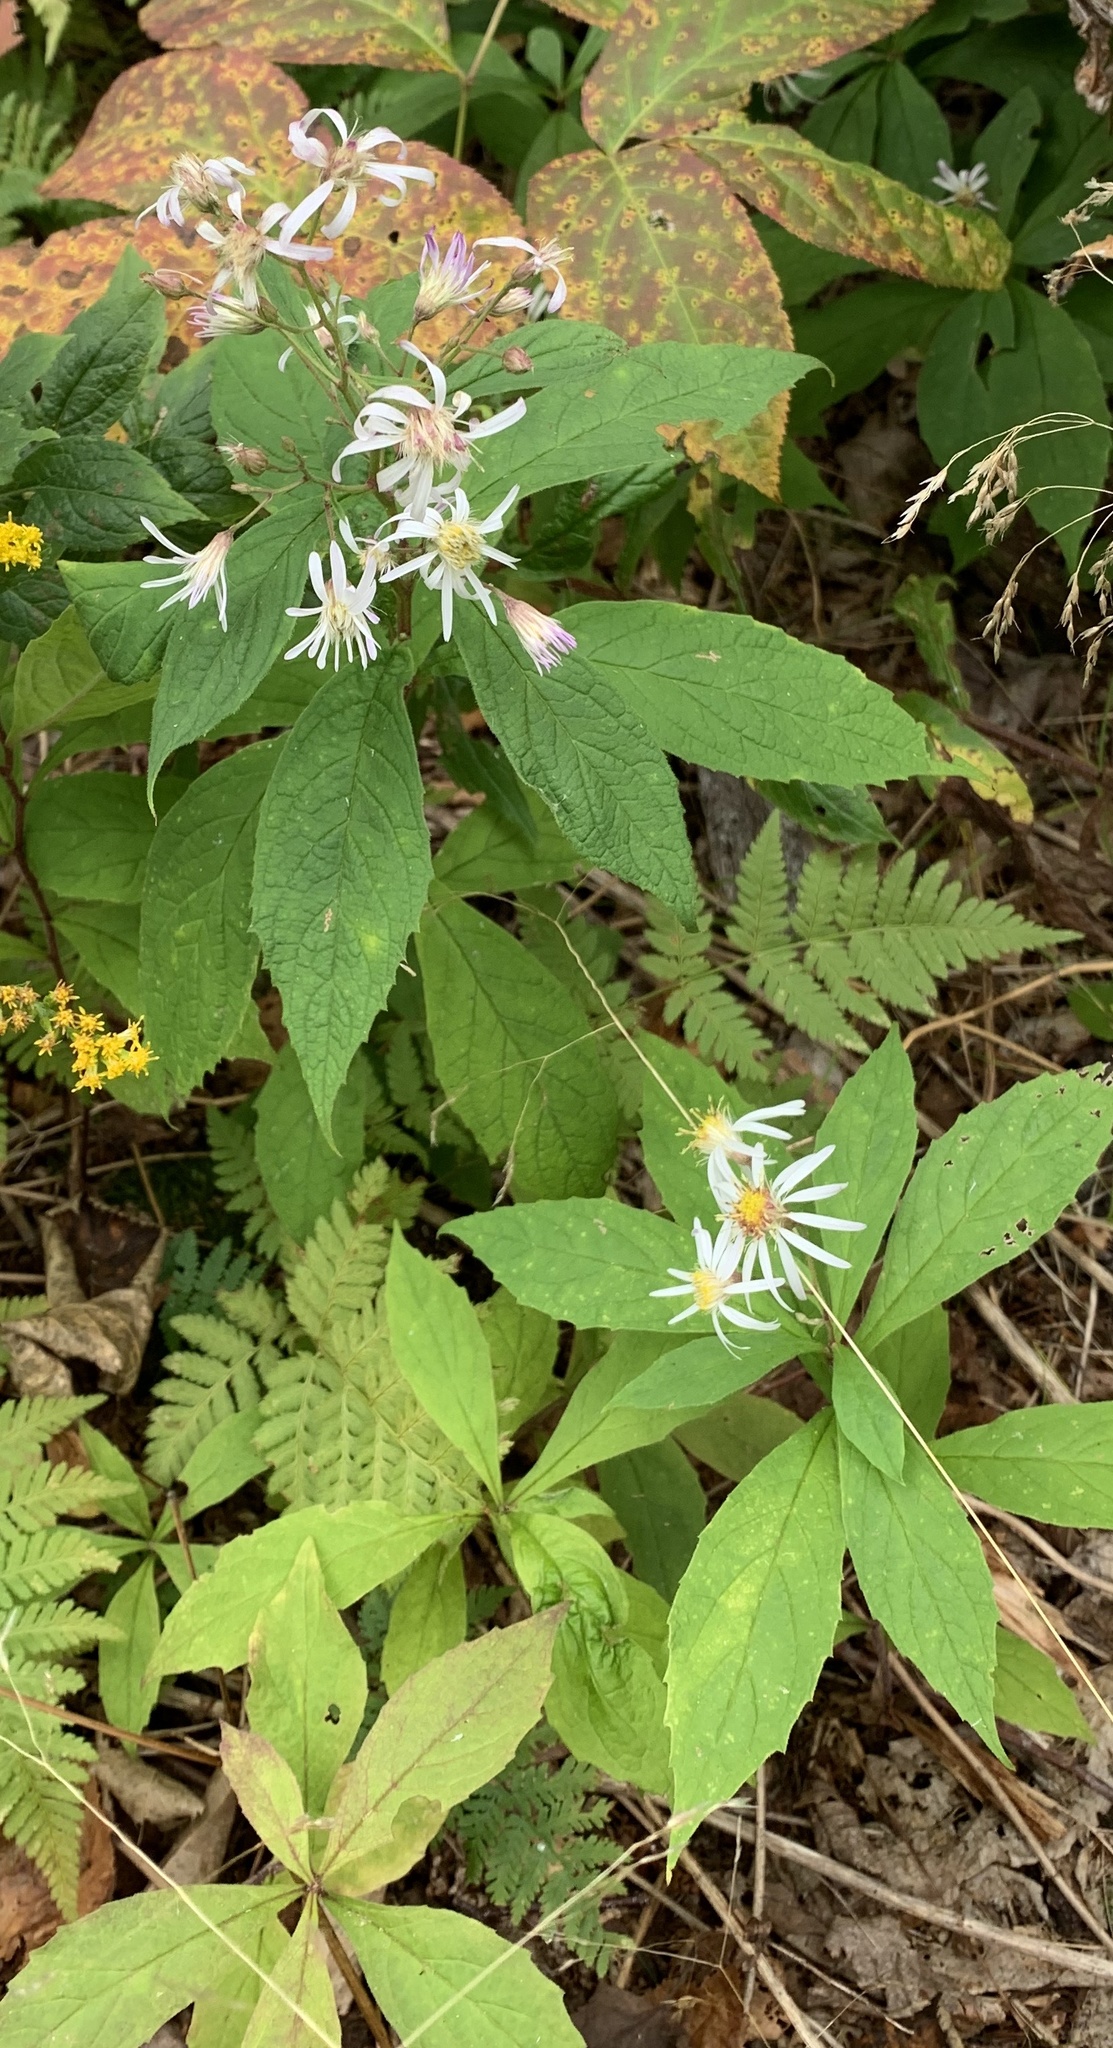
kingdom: Plantae
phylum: Tracheophyta
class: Magnoliopsida
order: Asterales
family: Asteraceae
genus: Oclemena
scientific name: Oclemena acuminata
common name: Mountain aster
